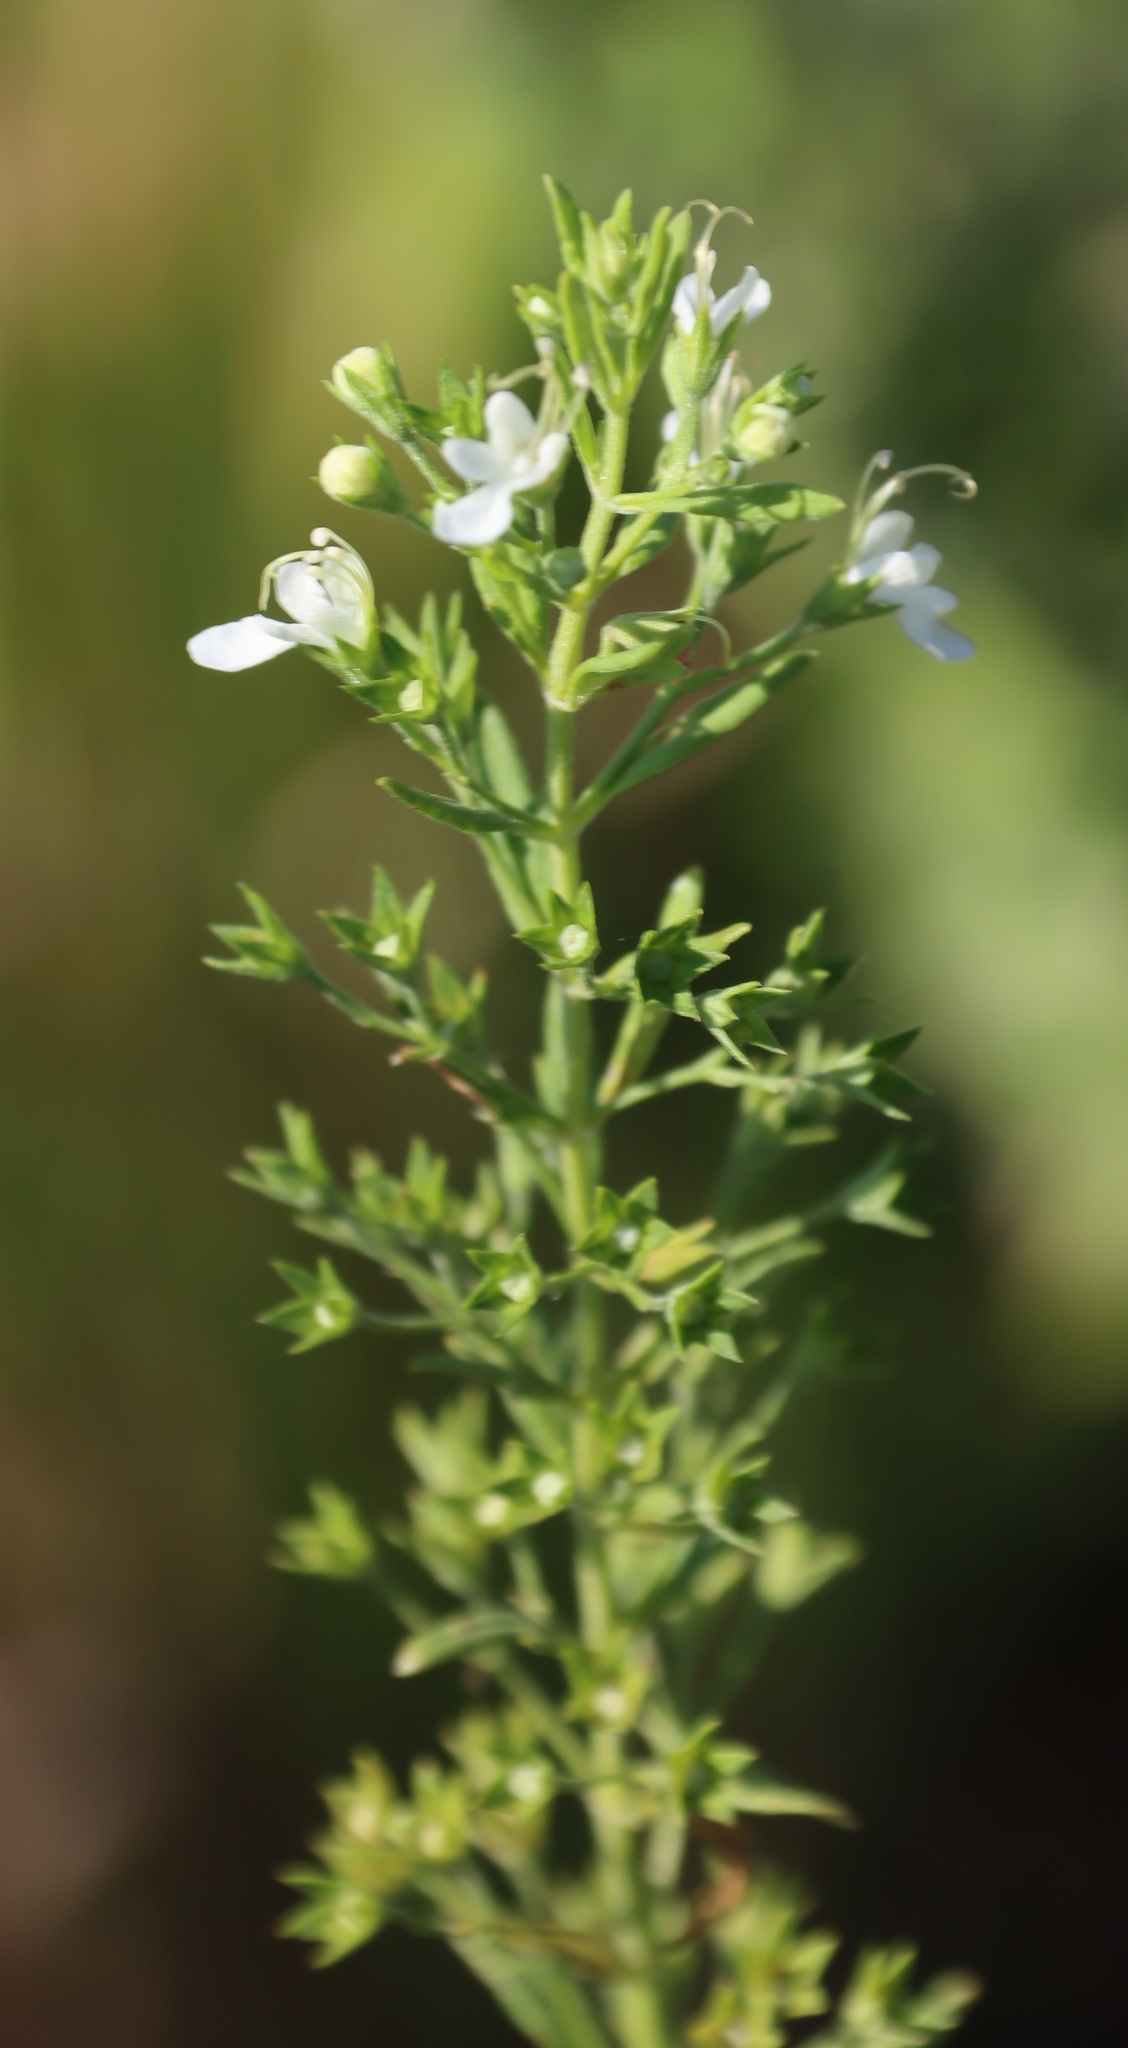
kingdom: Plantae
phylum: Tracheophyta
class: Magnoliopsida
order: Lamiales
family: Lamiaceae
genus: Teucrium
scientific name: Teucrium kraussii
